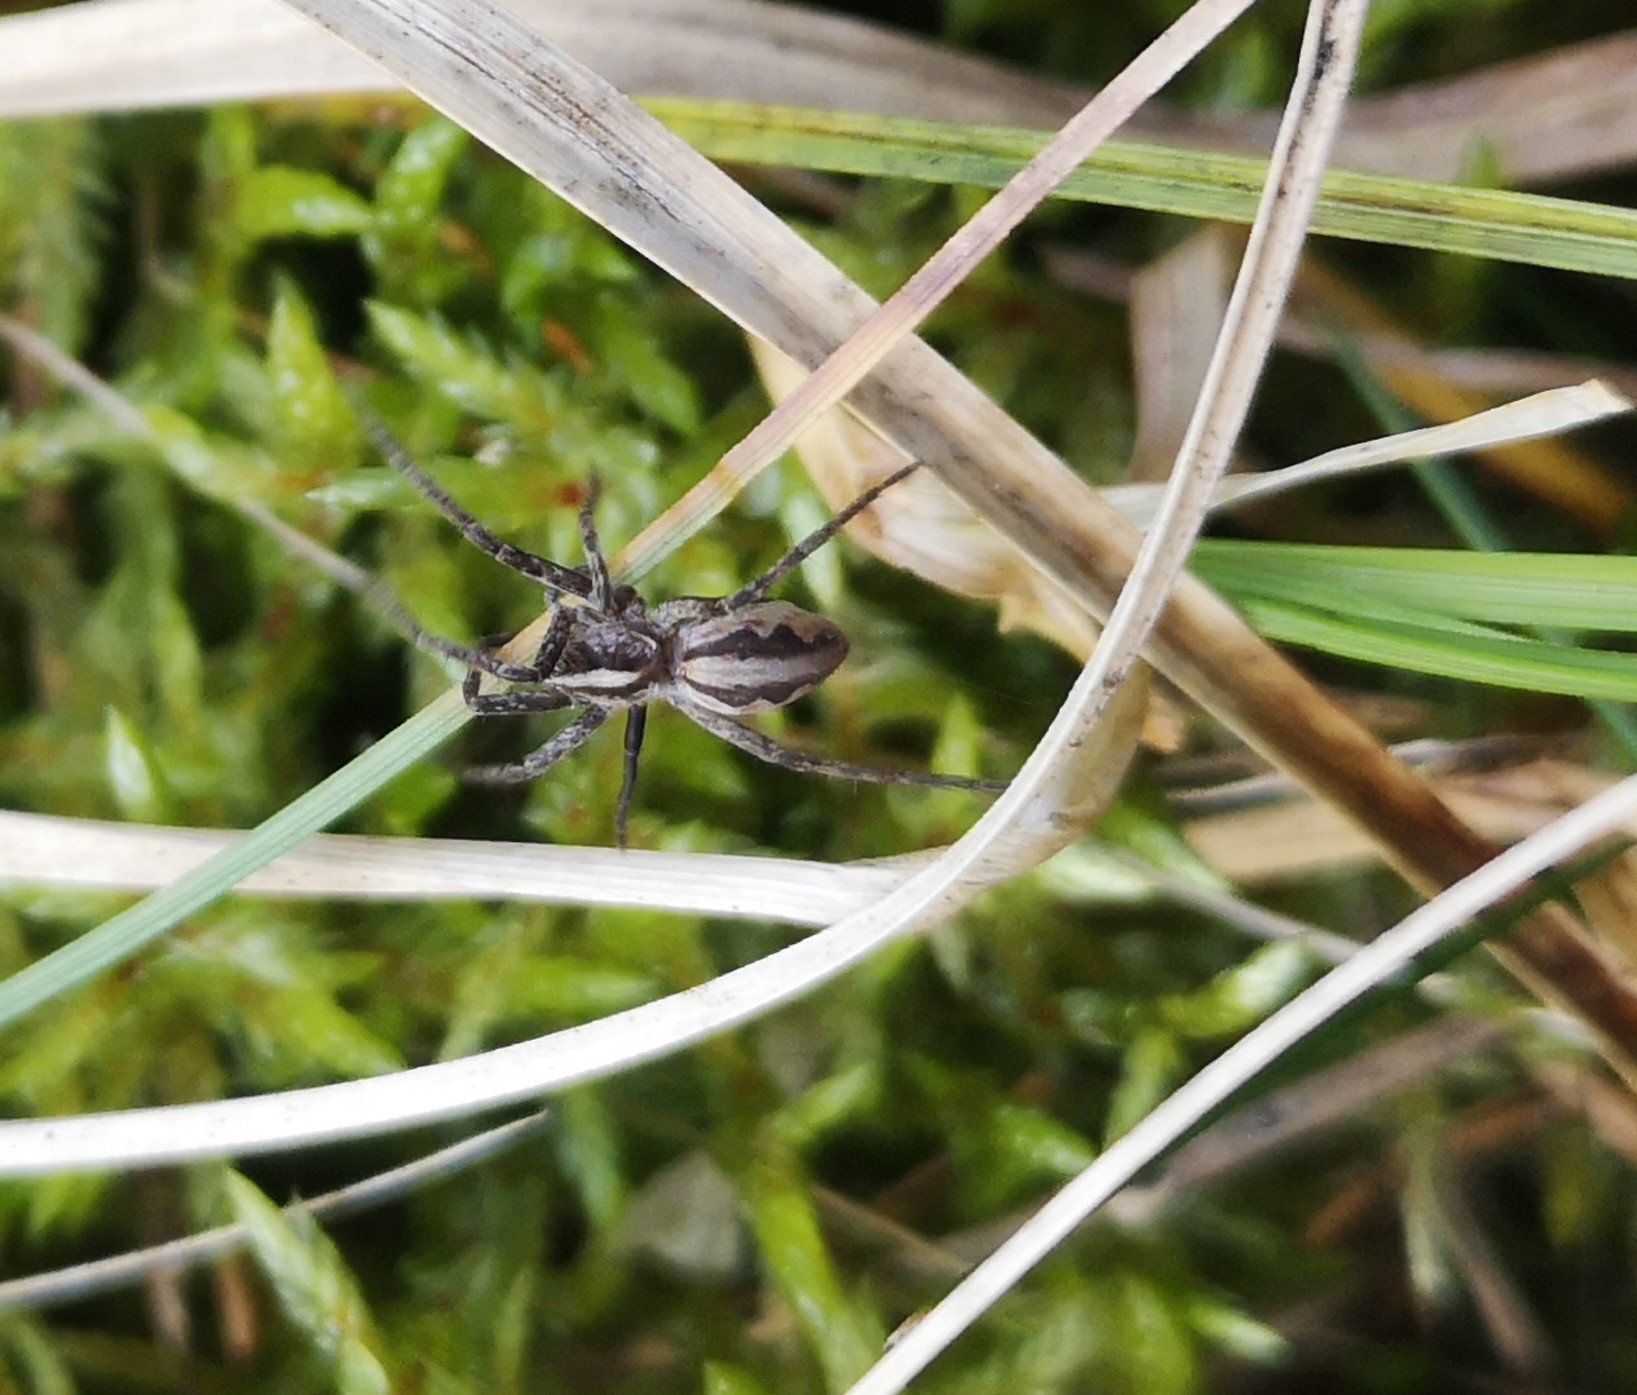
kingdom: Animalia
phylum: Arthropoda
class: Arachnida
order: Araneae
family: Pisauridae
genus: Pisaura
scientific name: Pisaura mirabilis
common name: Tent spider
